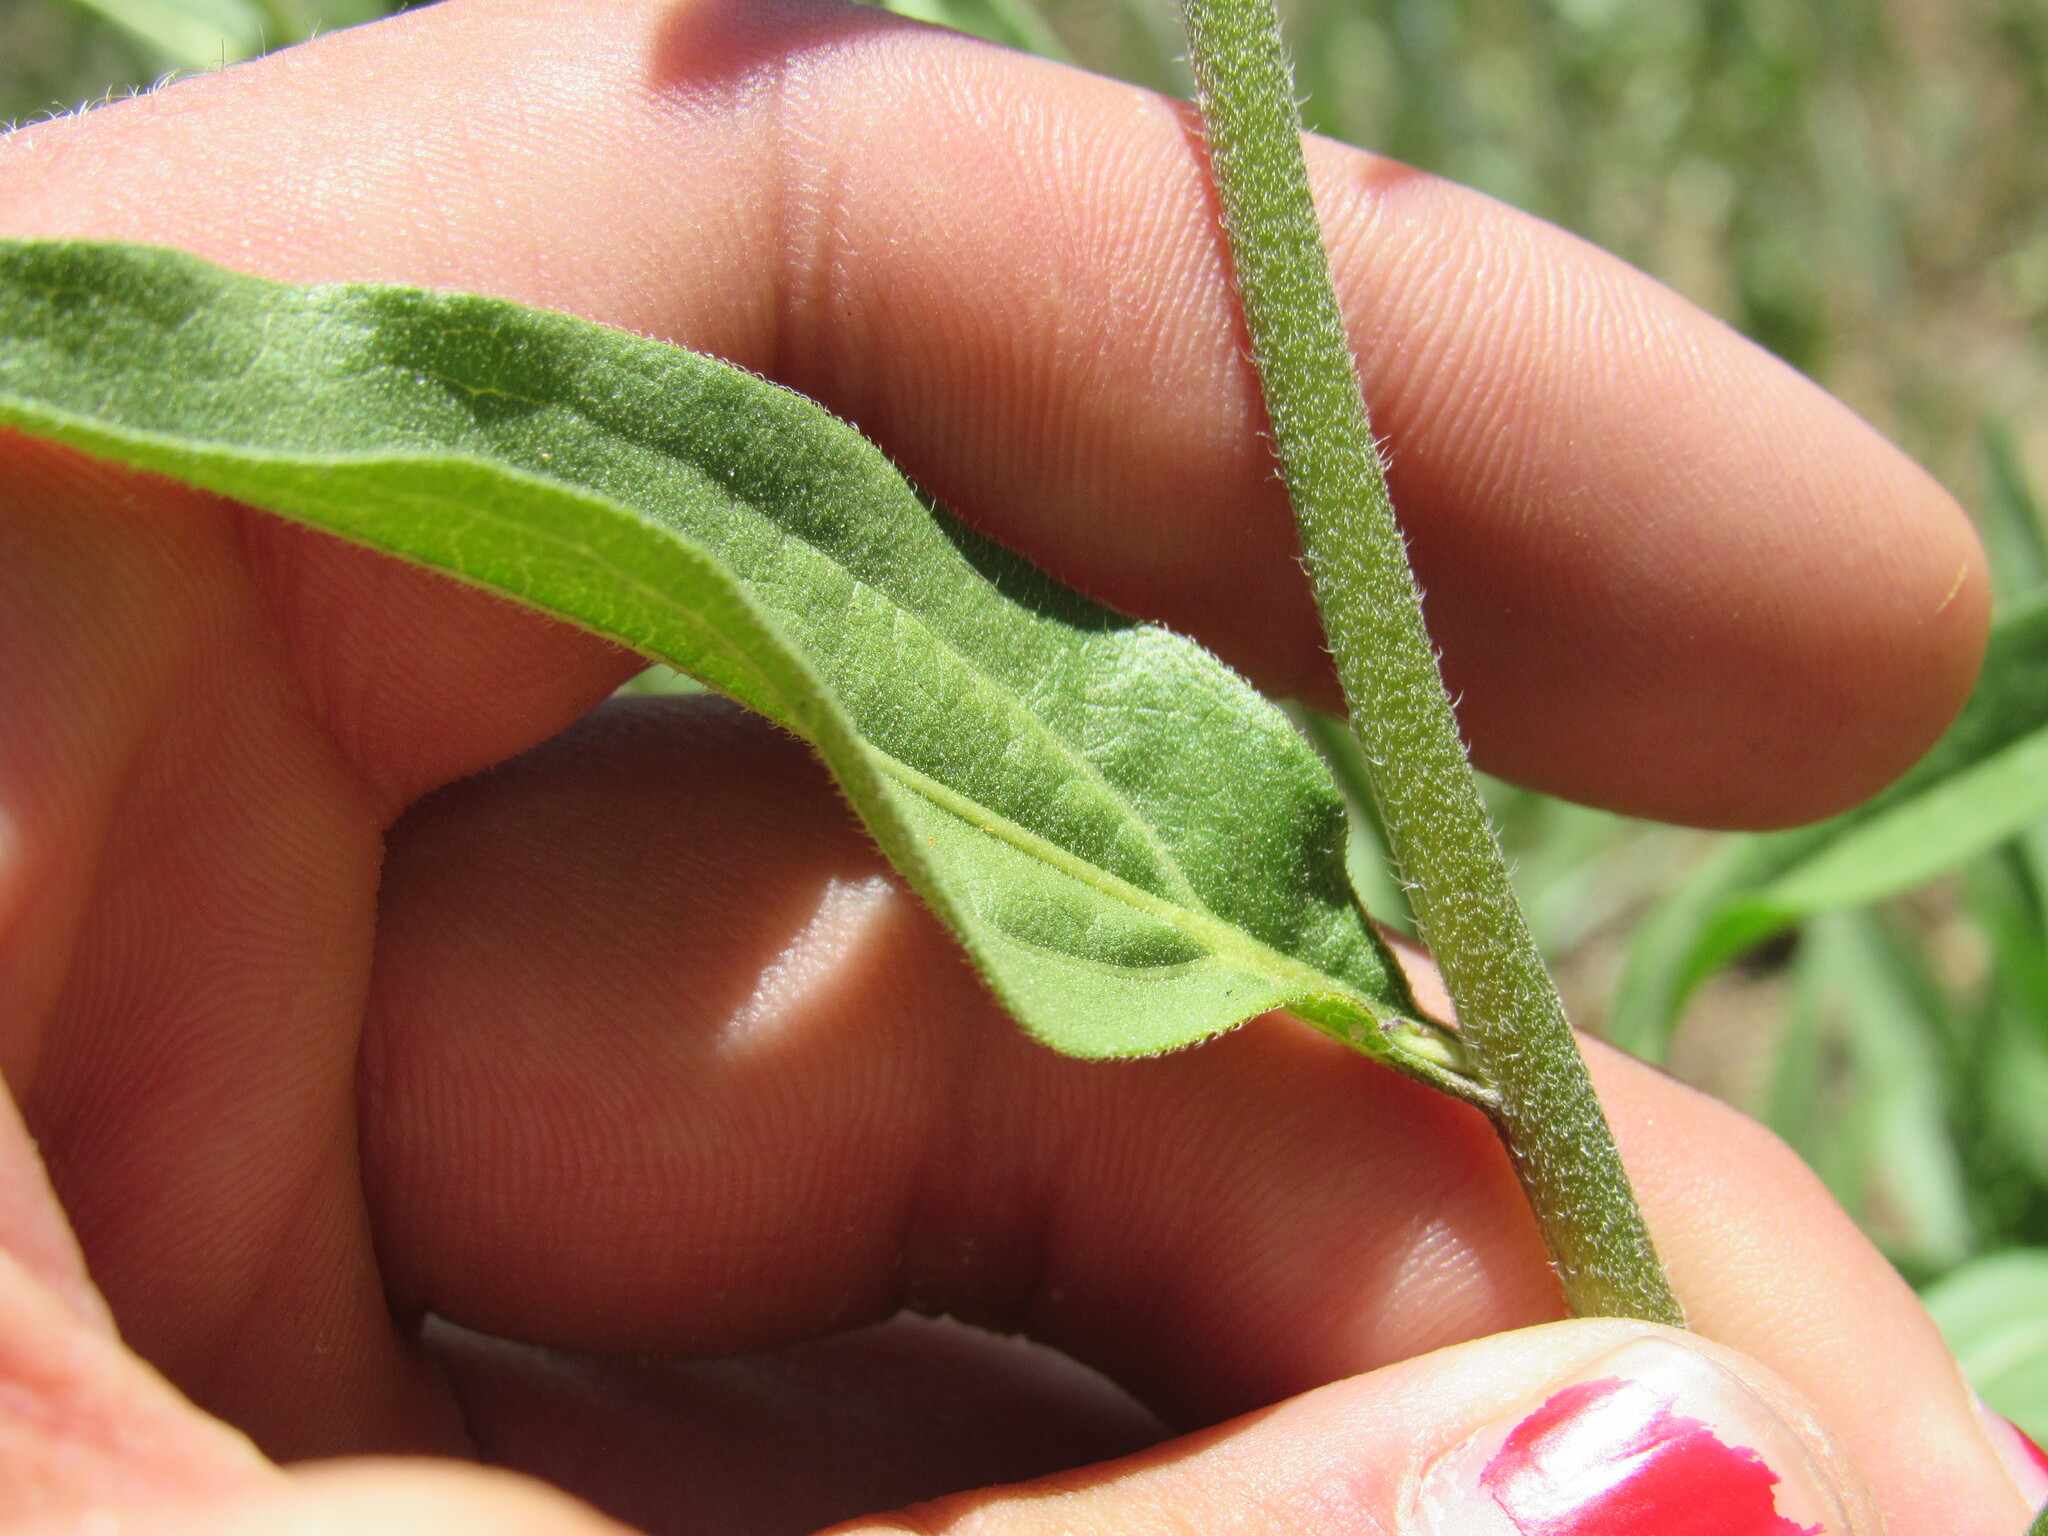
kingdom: Plantae
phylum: Tracheophyta
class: Magnoliopsida
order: Asterales
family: Asteraceae
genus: Helianthella
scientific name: Helianthella uniflora
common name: Rocky mountain dwarf sunflower
